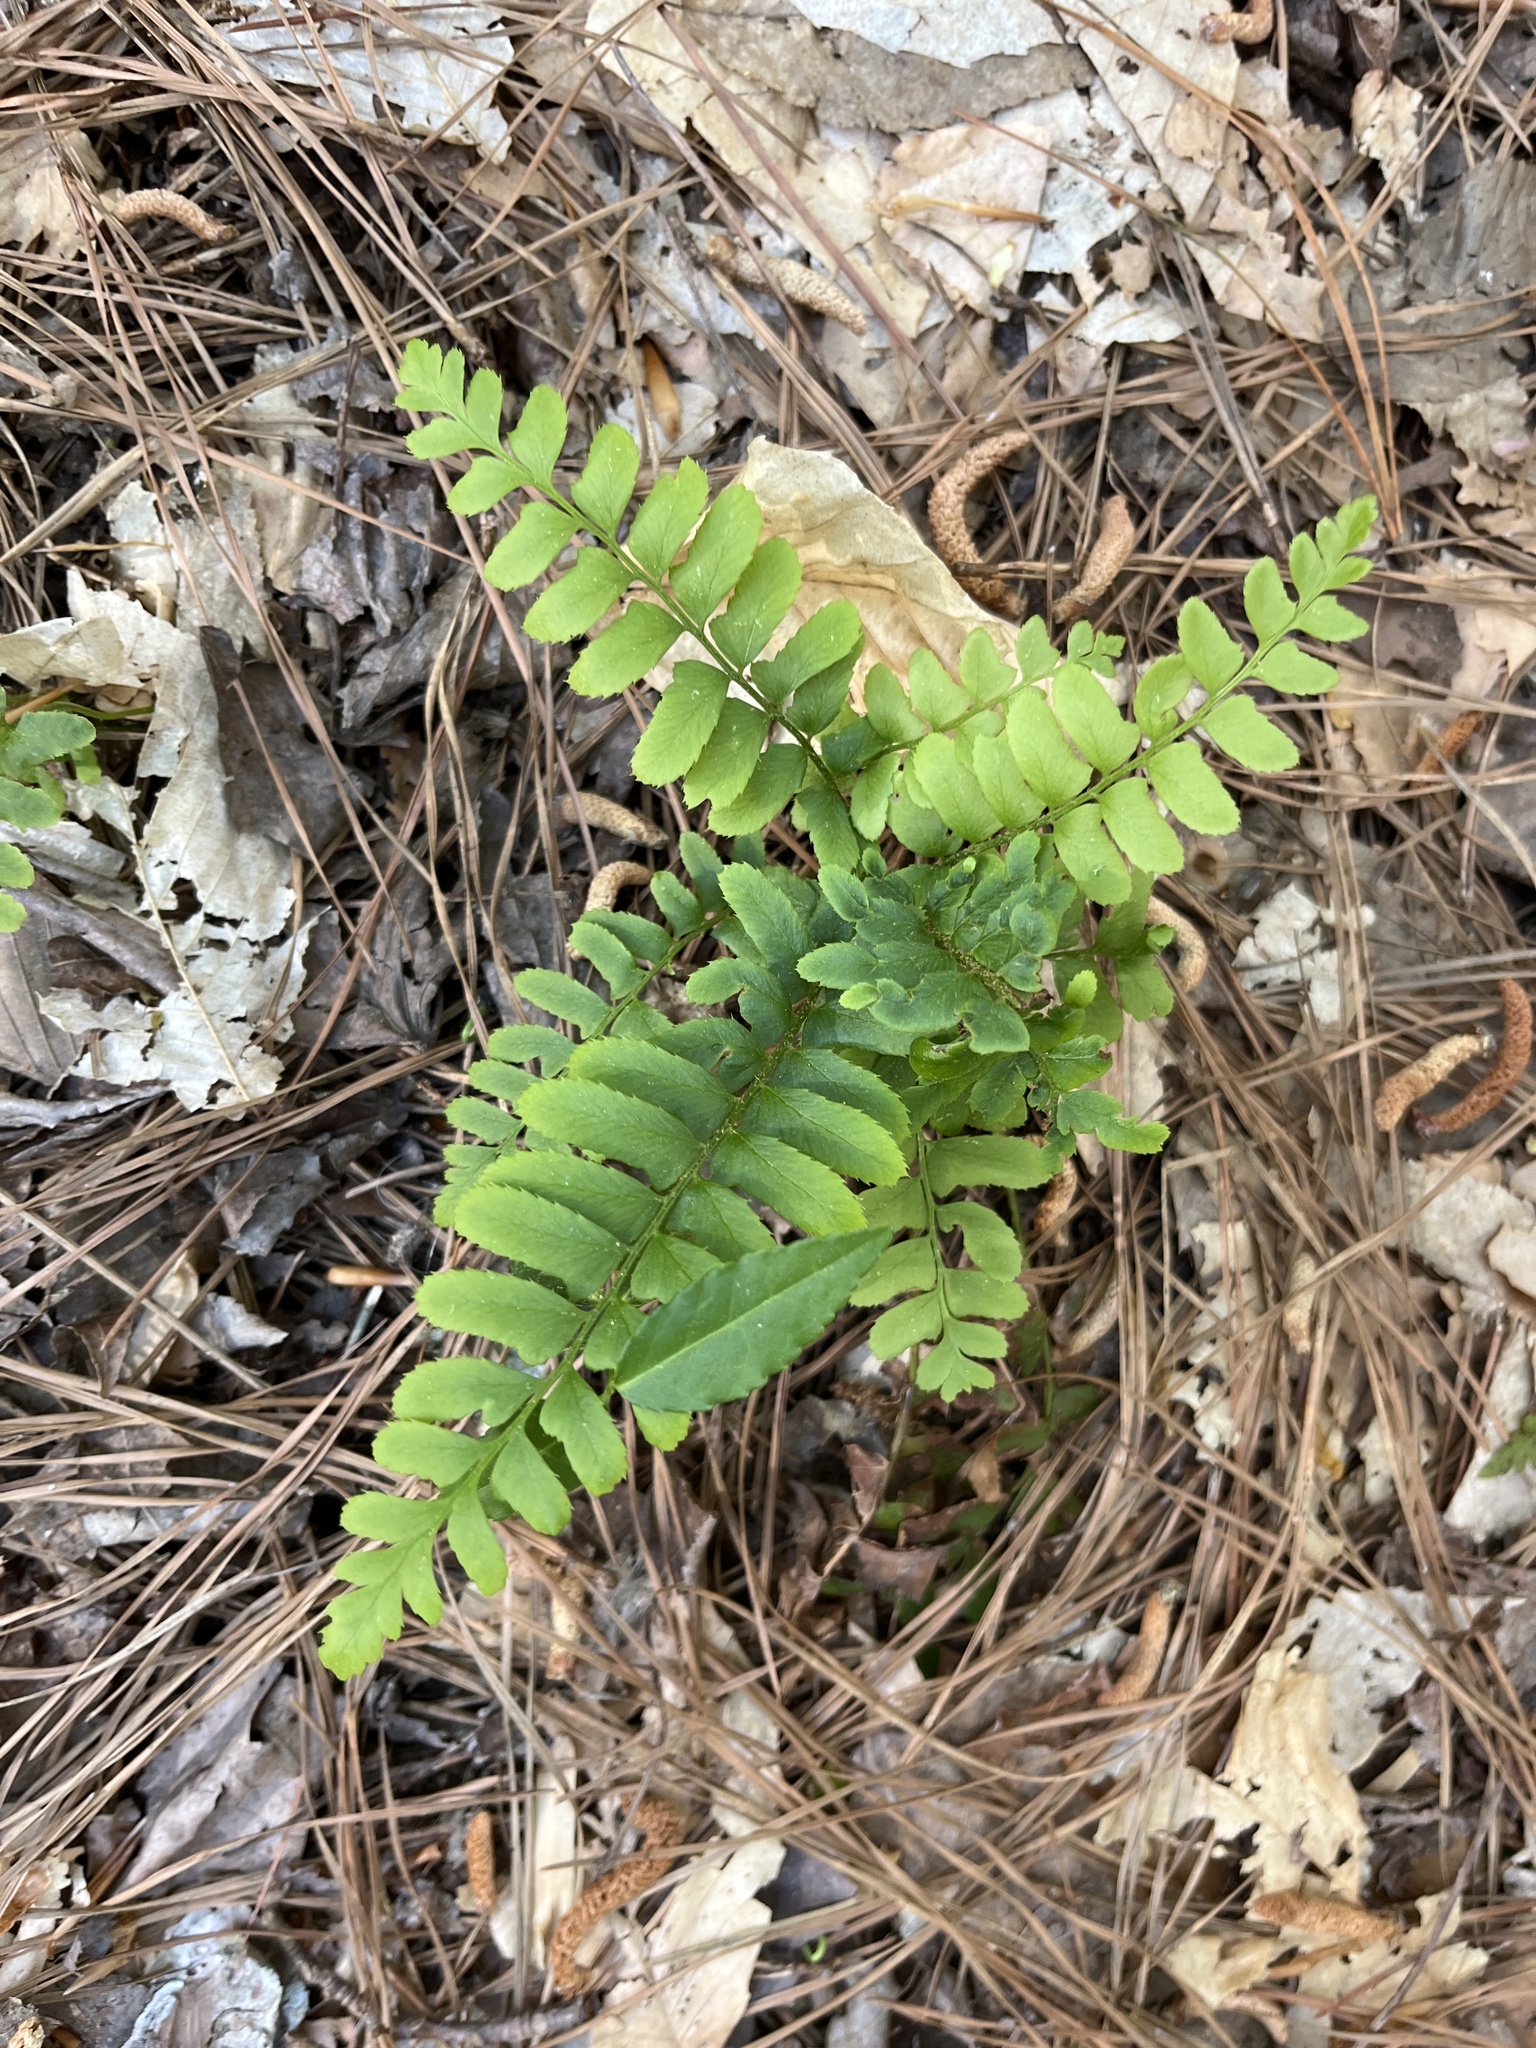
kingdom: Plantae
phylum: Tracheophyta
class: Polypodiopsida
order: Polypodiales
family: Dryopteridaceae
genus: Polystichum
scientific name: Polystichum acrostichoides
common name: Christmas fern
